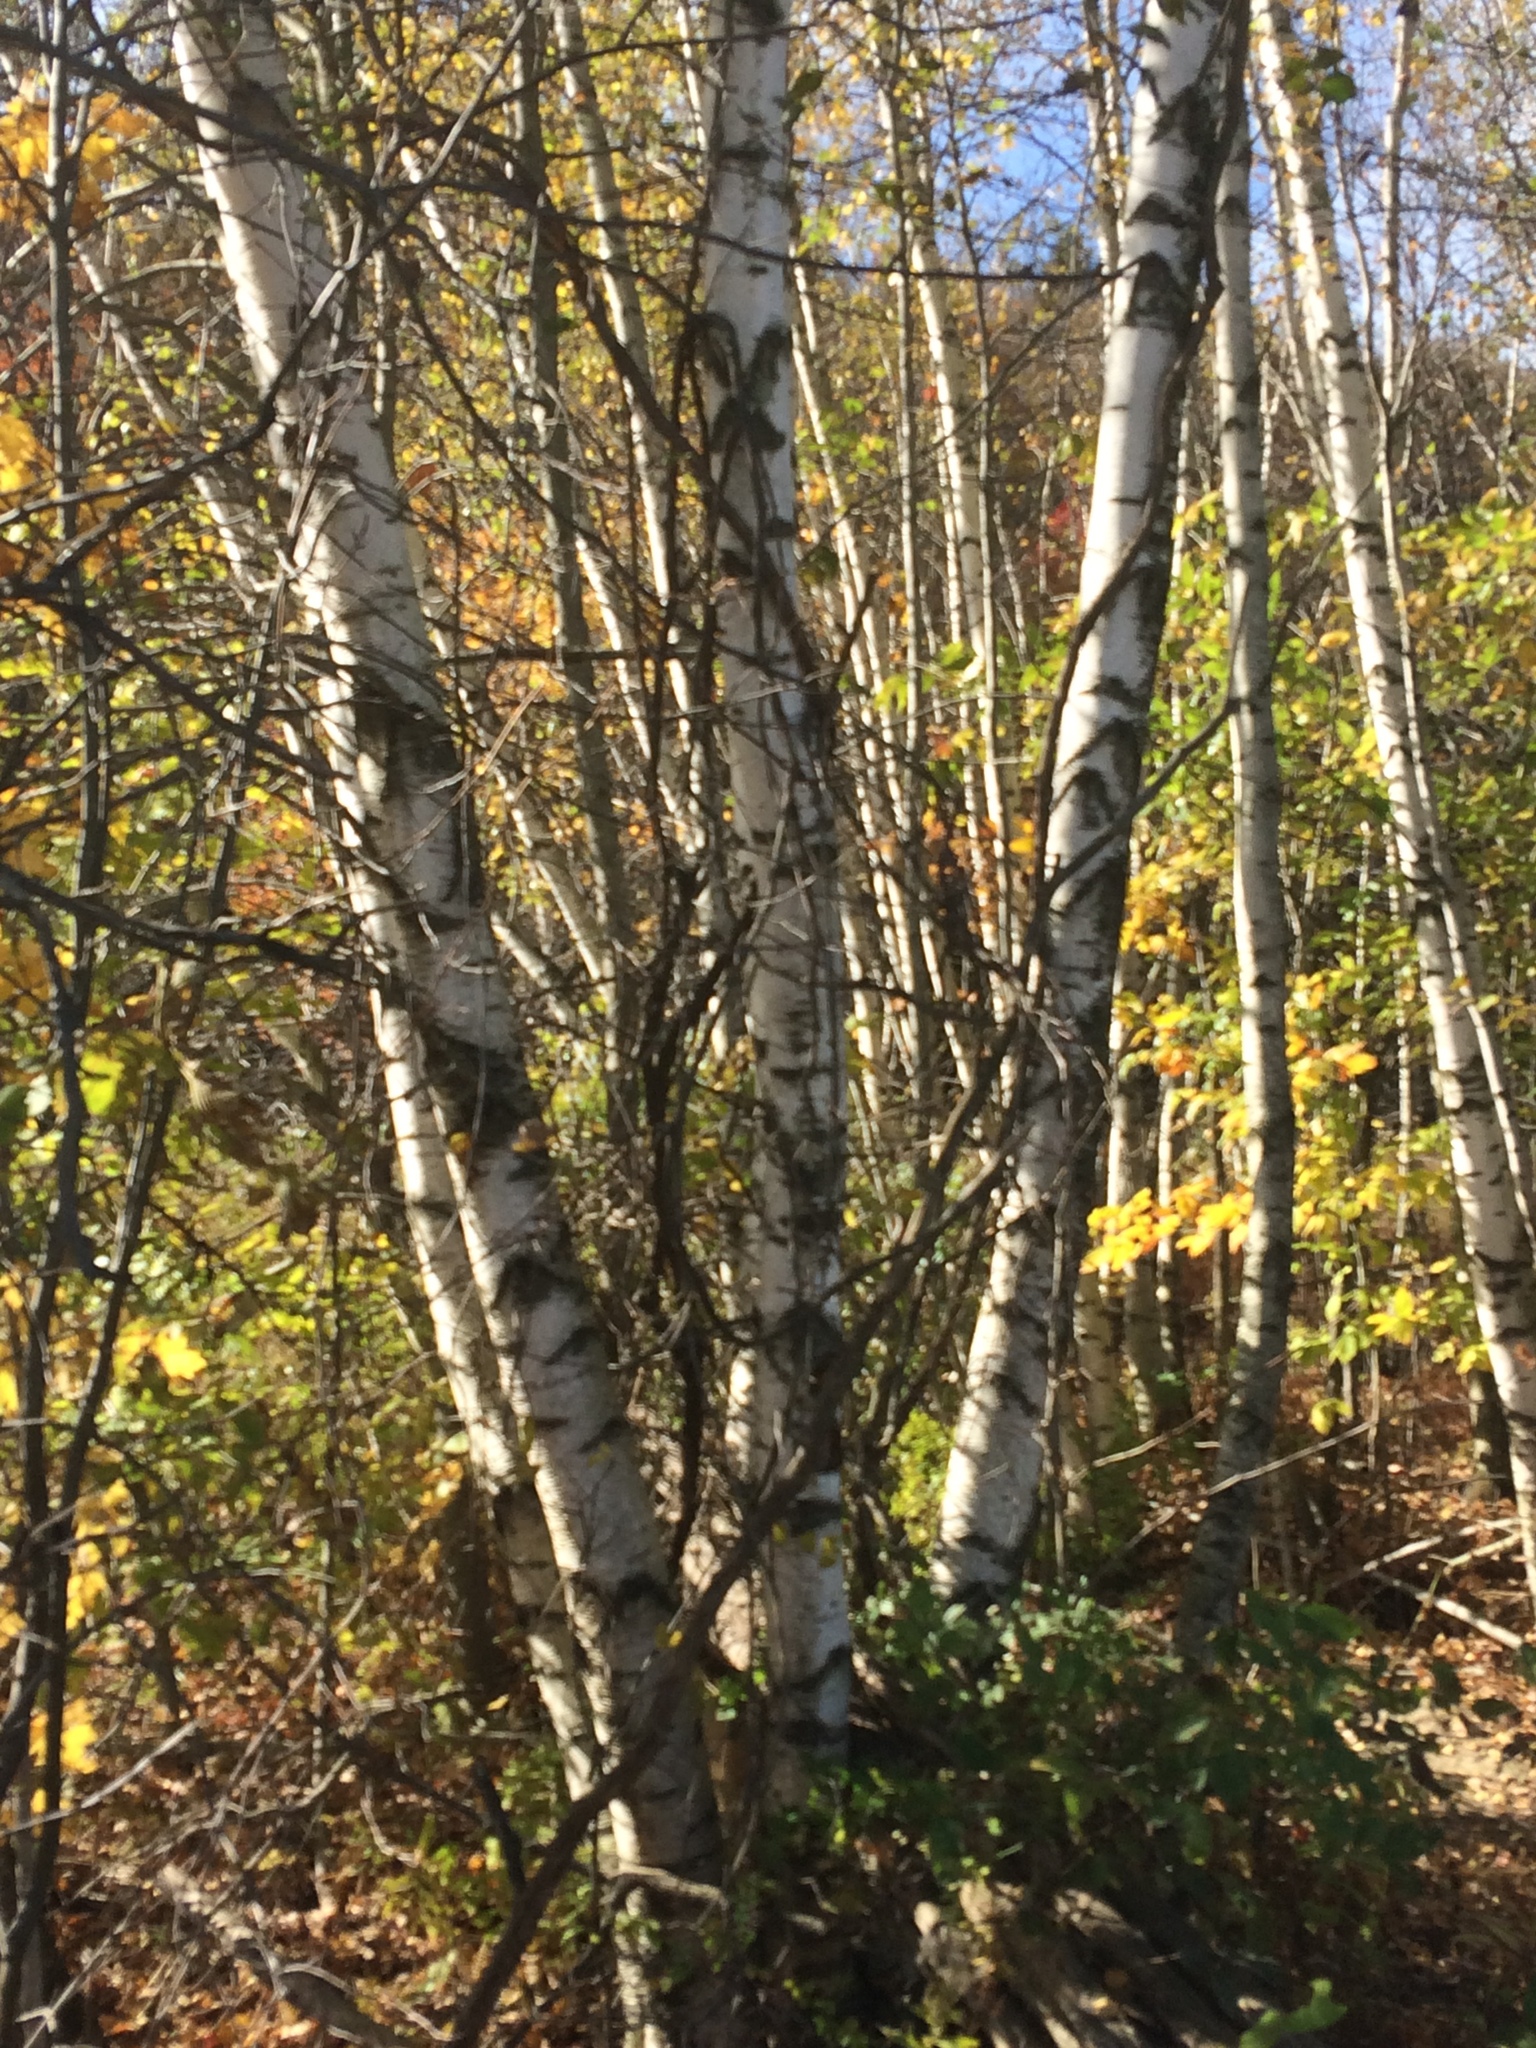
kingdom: Plantae
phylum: Tracheophyta
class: Magnoliopsida
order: Fagales
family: Betulaceae
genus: Betula
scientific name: Betula populifolia
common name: Fire birch
